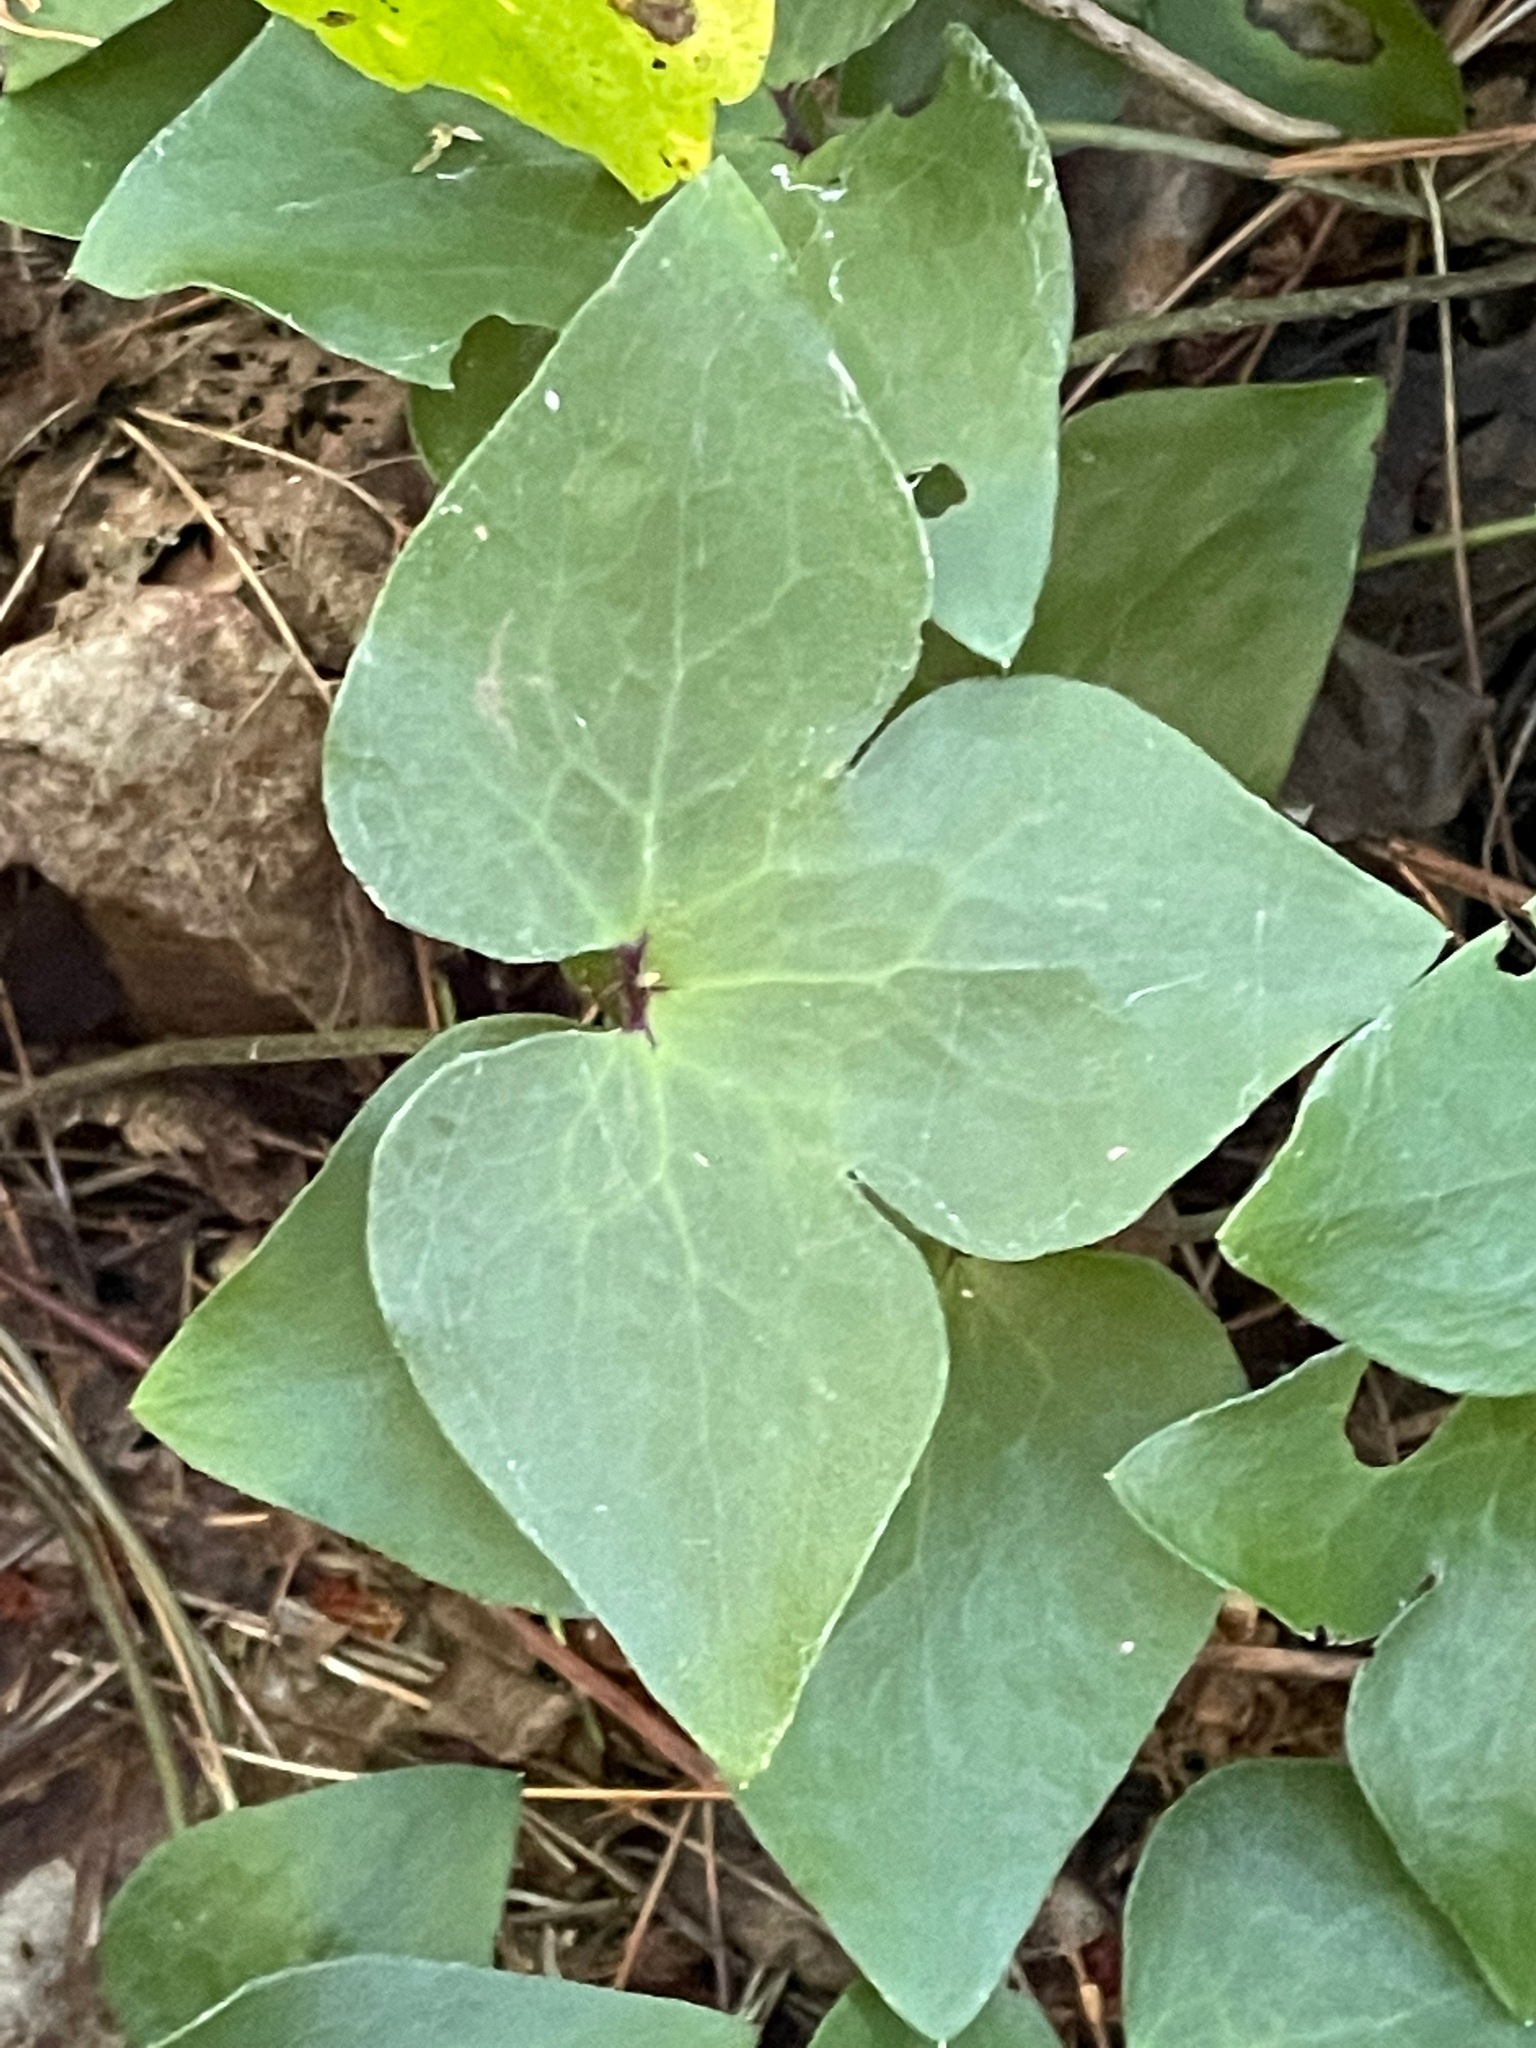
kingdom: Plantae
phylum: Tracheophyta
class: Magnoliopsida
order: Ranunculales
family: Ranunculaceae
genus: Hepatica
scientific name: Hepatica acutiloba
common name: Sharp-lobed hepatica
